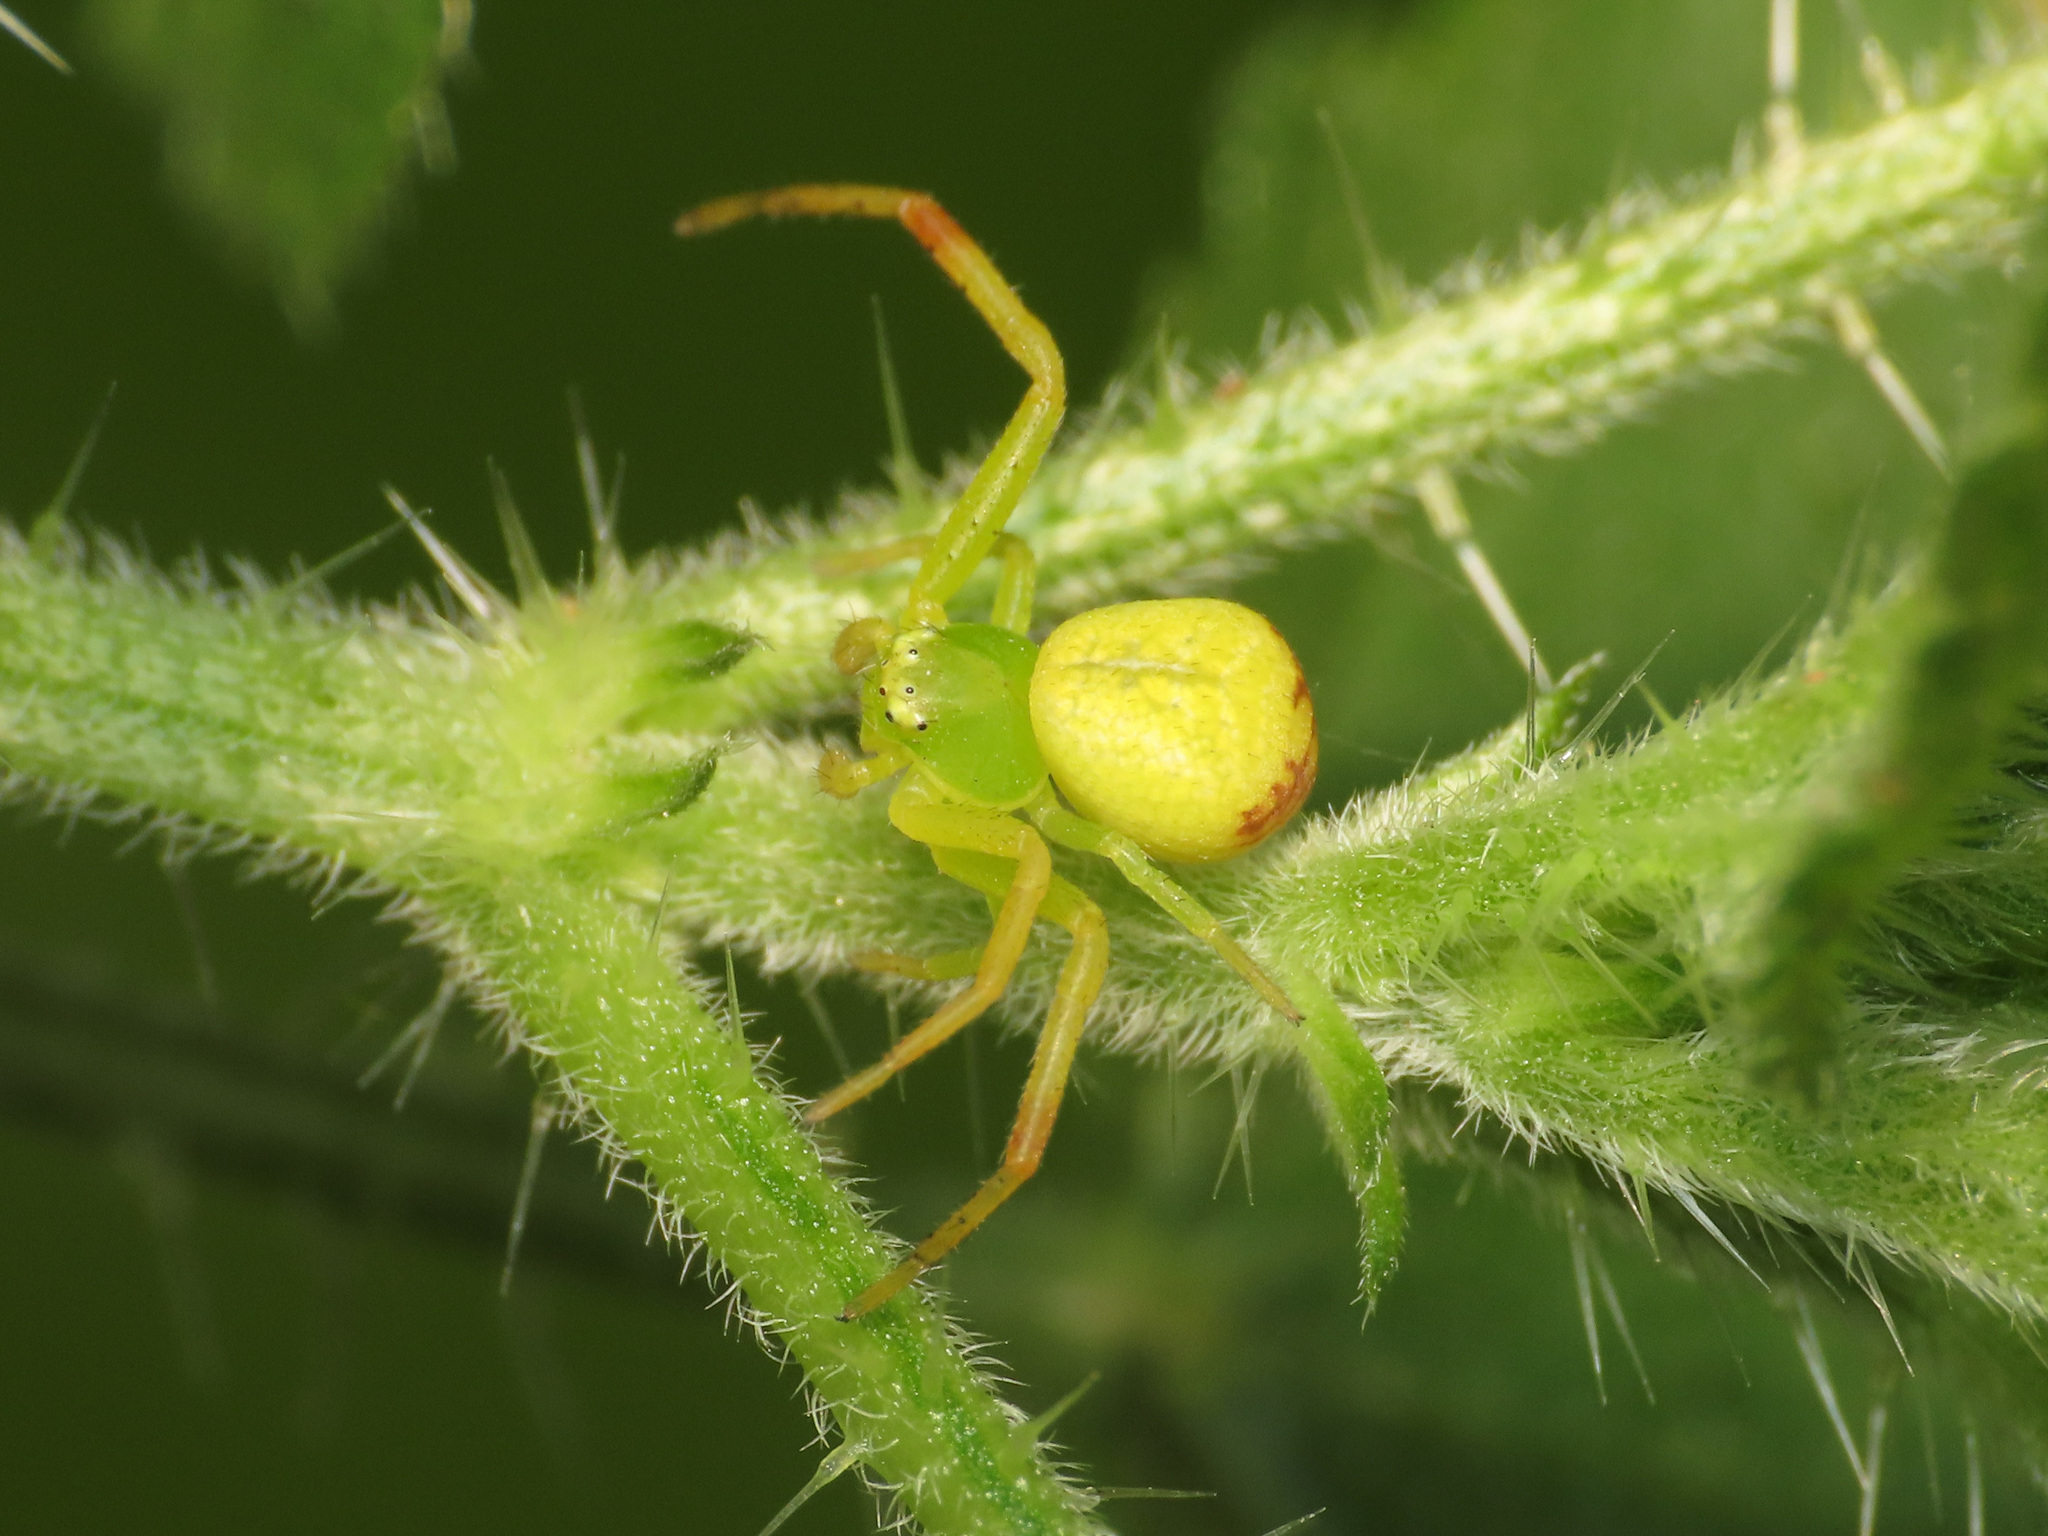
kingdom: Animalia
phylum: Arthropoda
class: Arachnida
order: Araneae
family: Thomisidae
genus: Ebrechtella
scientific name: Ebrechtella tricuspidata
